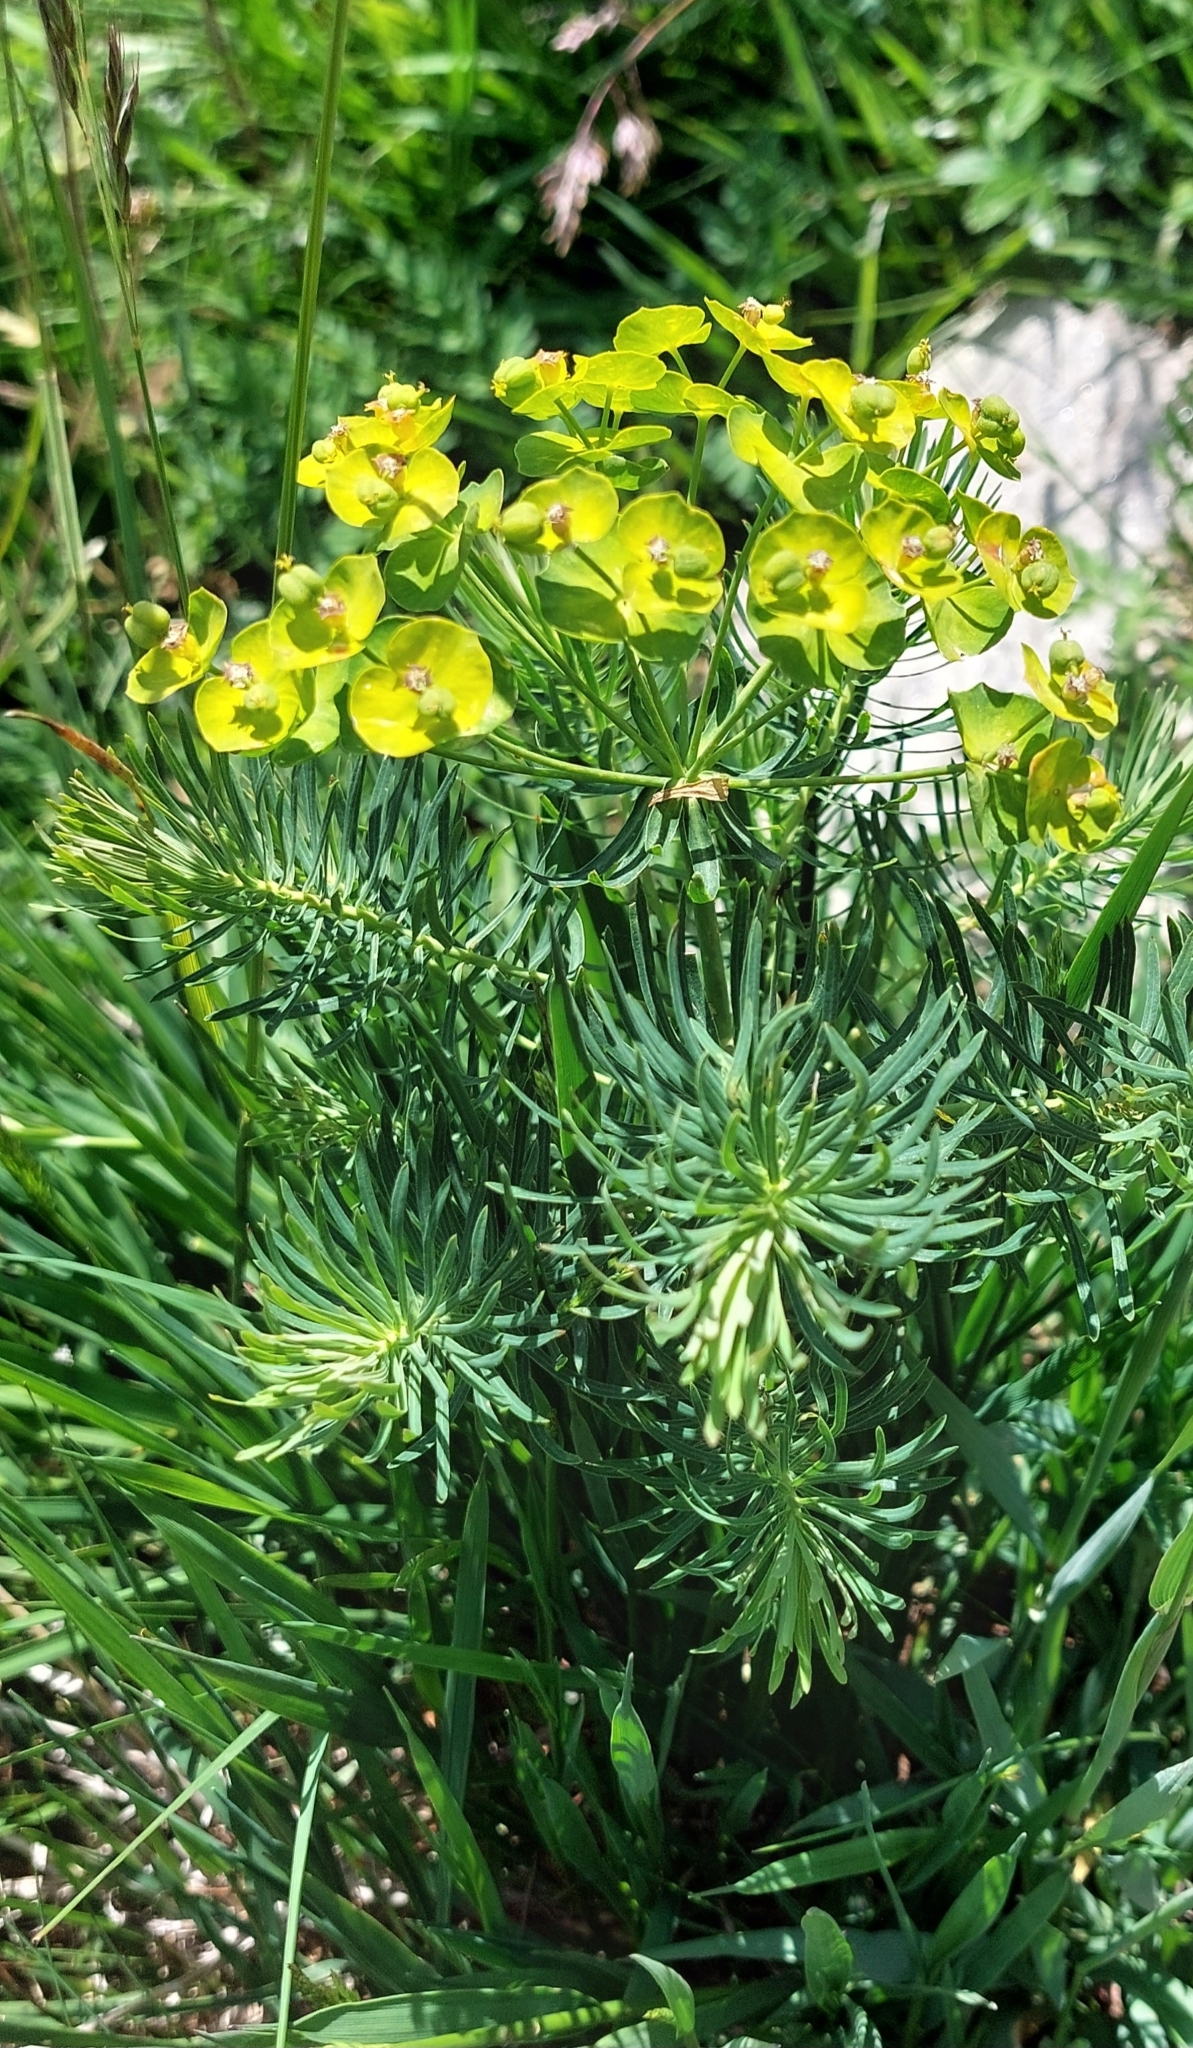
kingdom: Plantae
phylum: Tracheophyta
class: Magnoliopsida
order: Malpighiales
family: Euphorbiaceae
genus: Euphorbia
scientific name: Euphorbia cyparissias
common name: Cypress spurge
